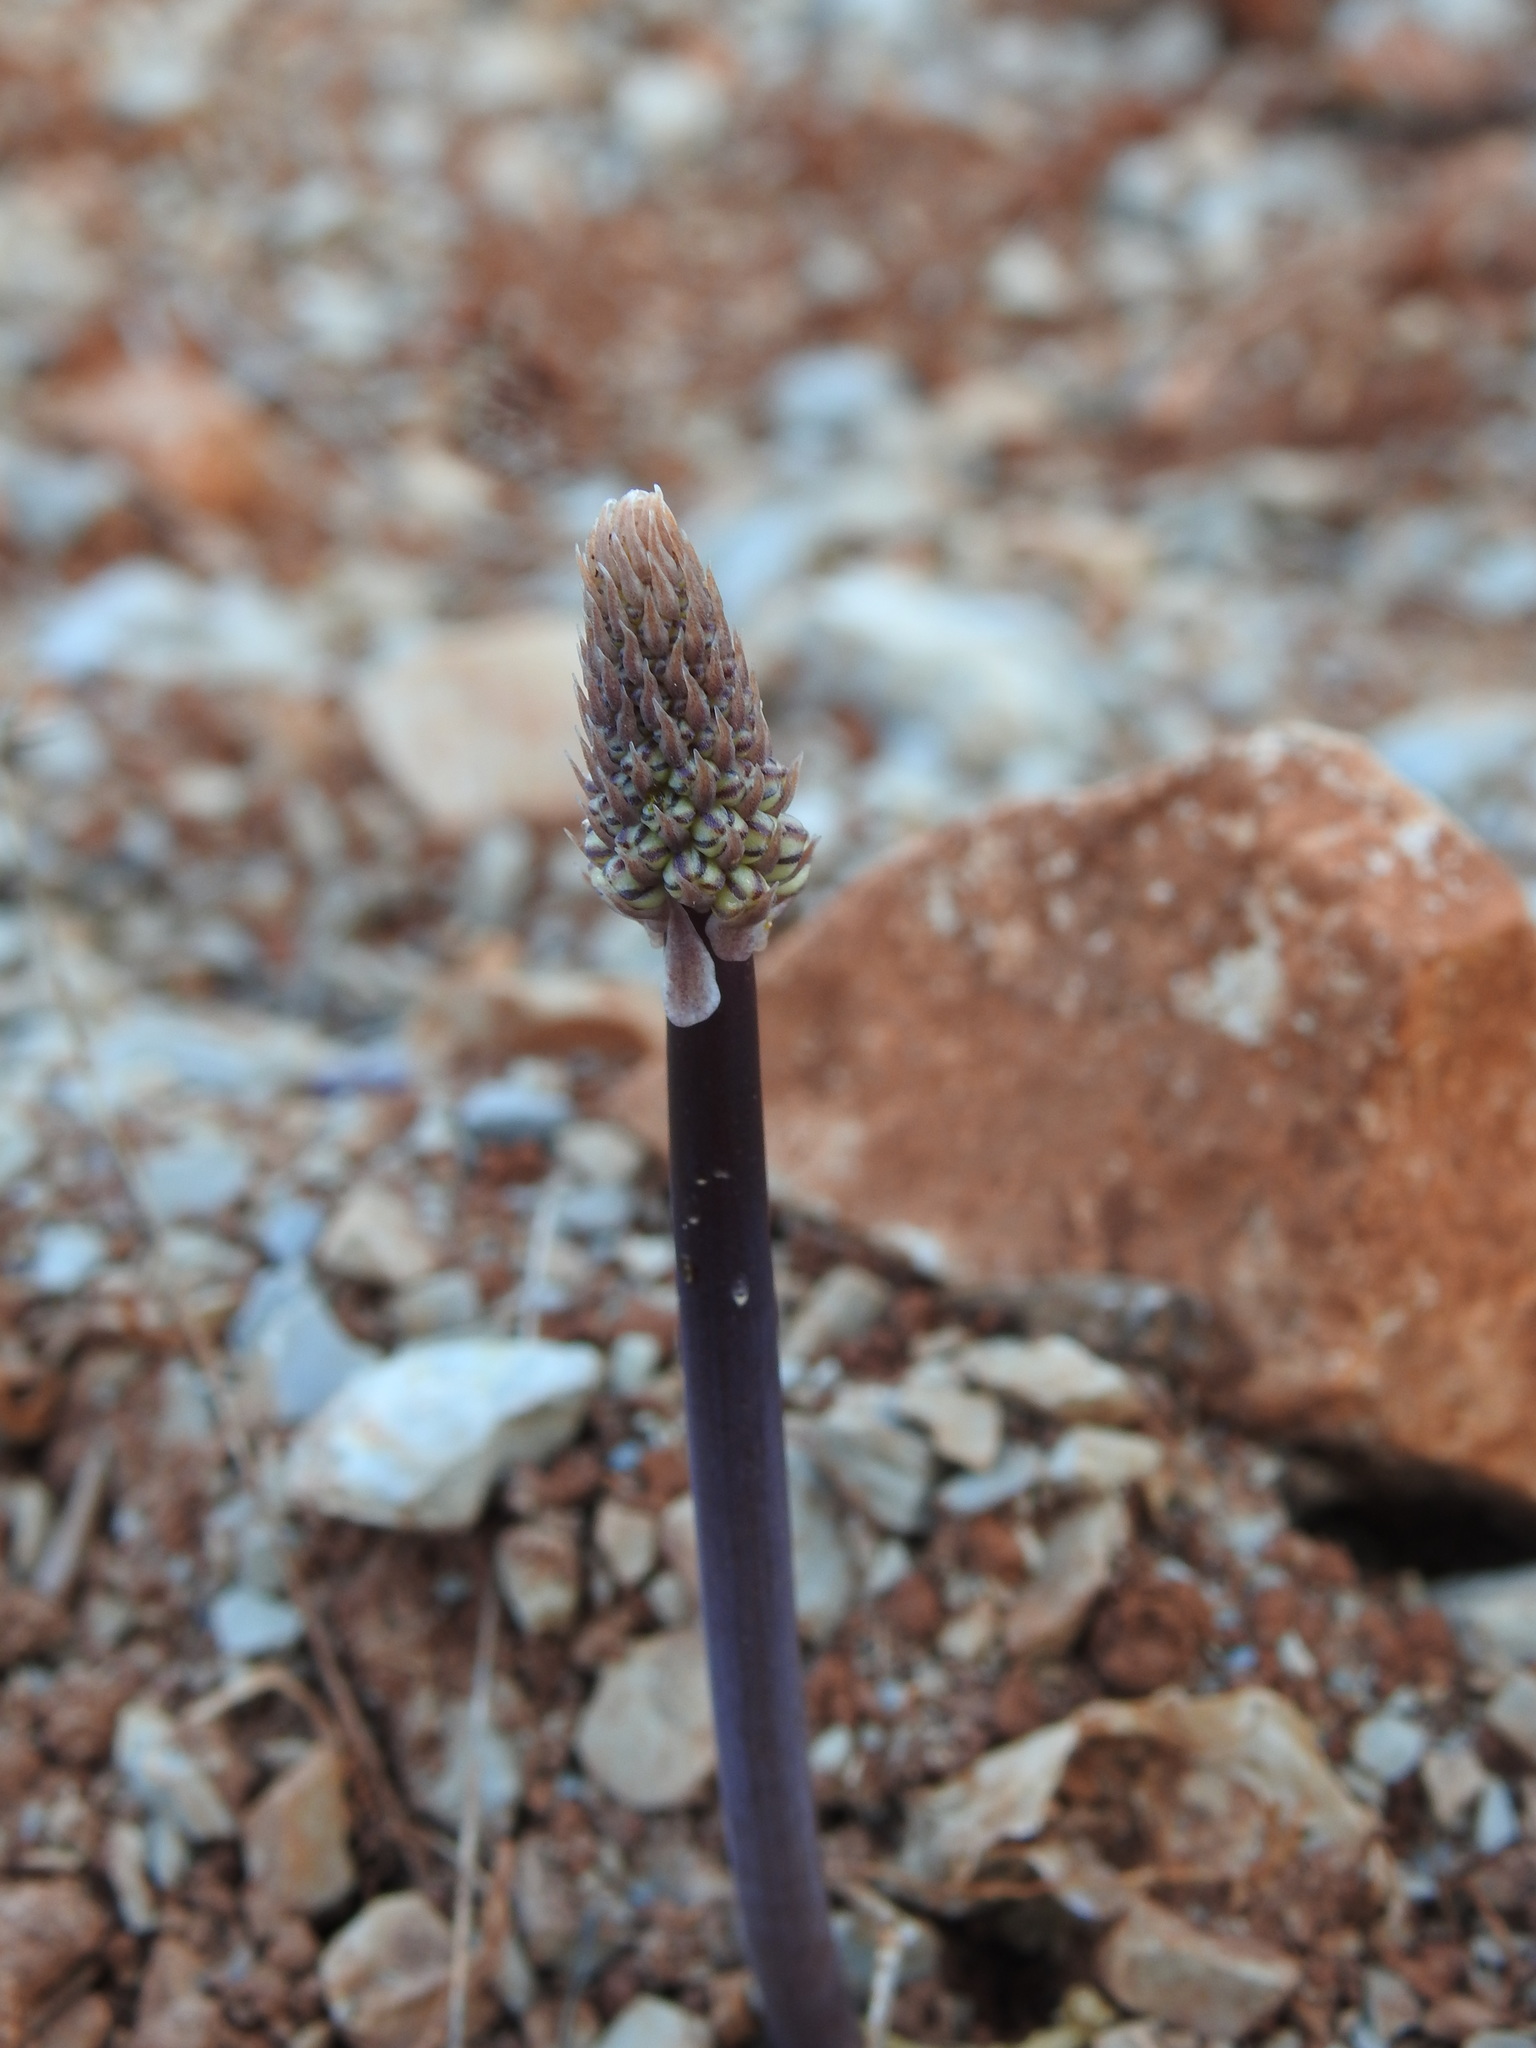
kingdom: Plantae
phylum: Tracheophyta
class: Liliopsida
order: Asparagales
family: Asparagaceae
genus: Drimia
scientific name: Drimia maritima
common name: Maritime squill
